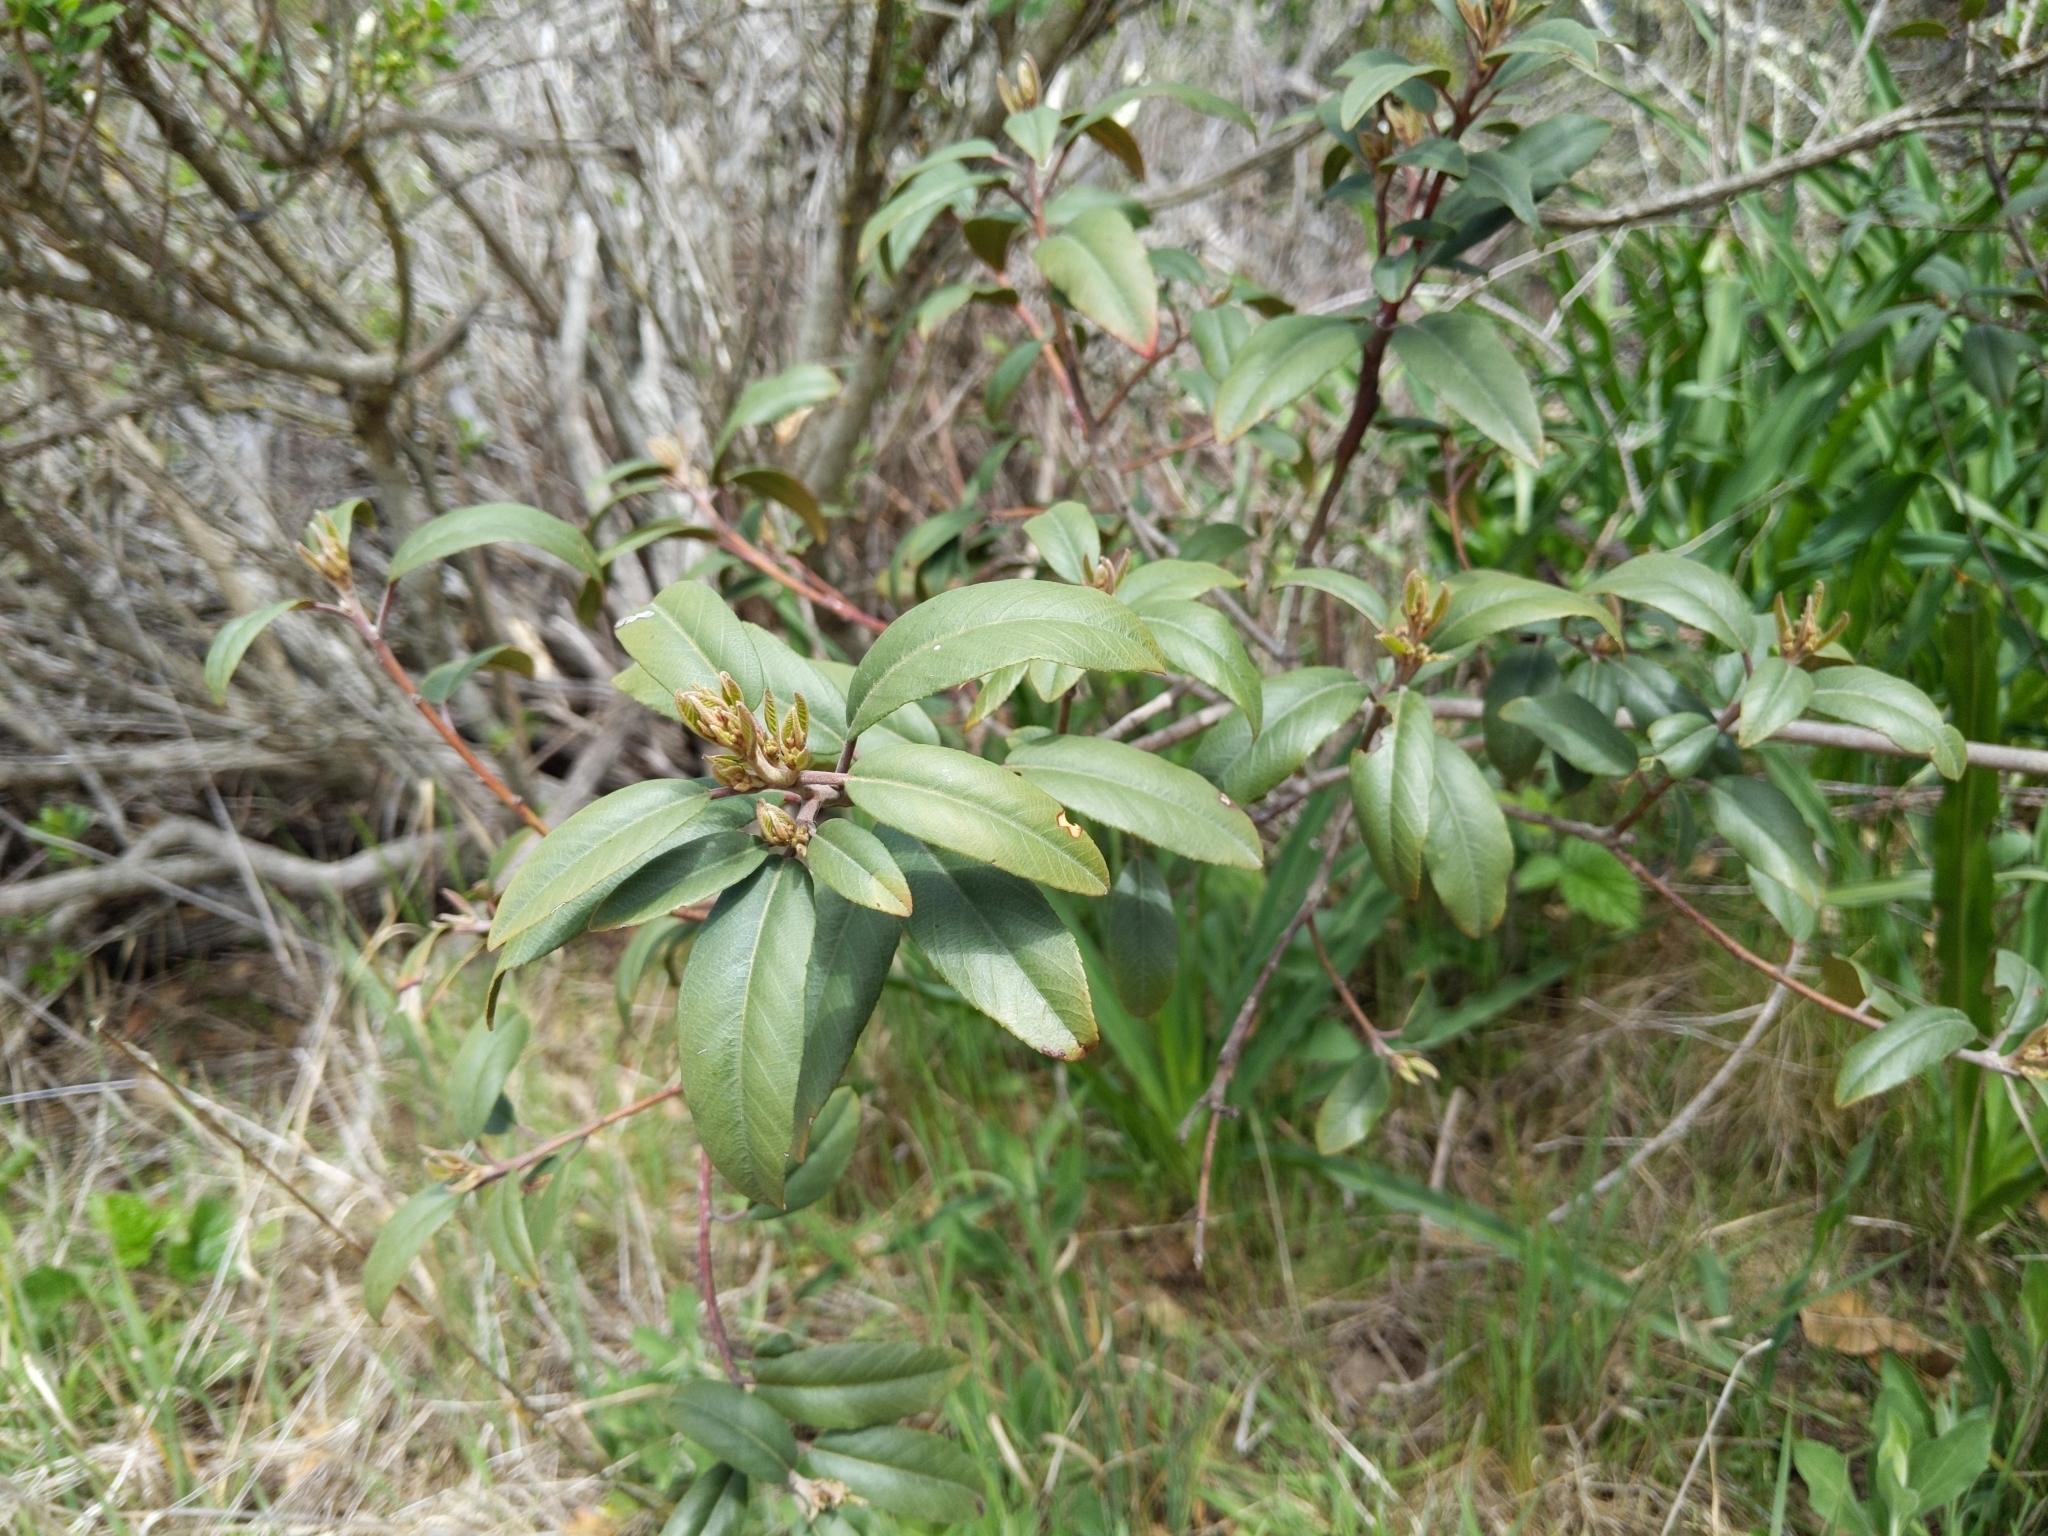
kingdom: Plantae
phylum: Tracheophyta
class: Magnoliopsida
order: Rosales
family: Rhamnaceae
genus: Frangula
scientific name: Frangula californica
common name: California buckthorn
